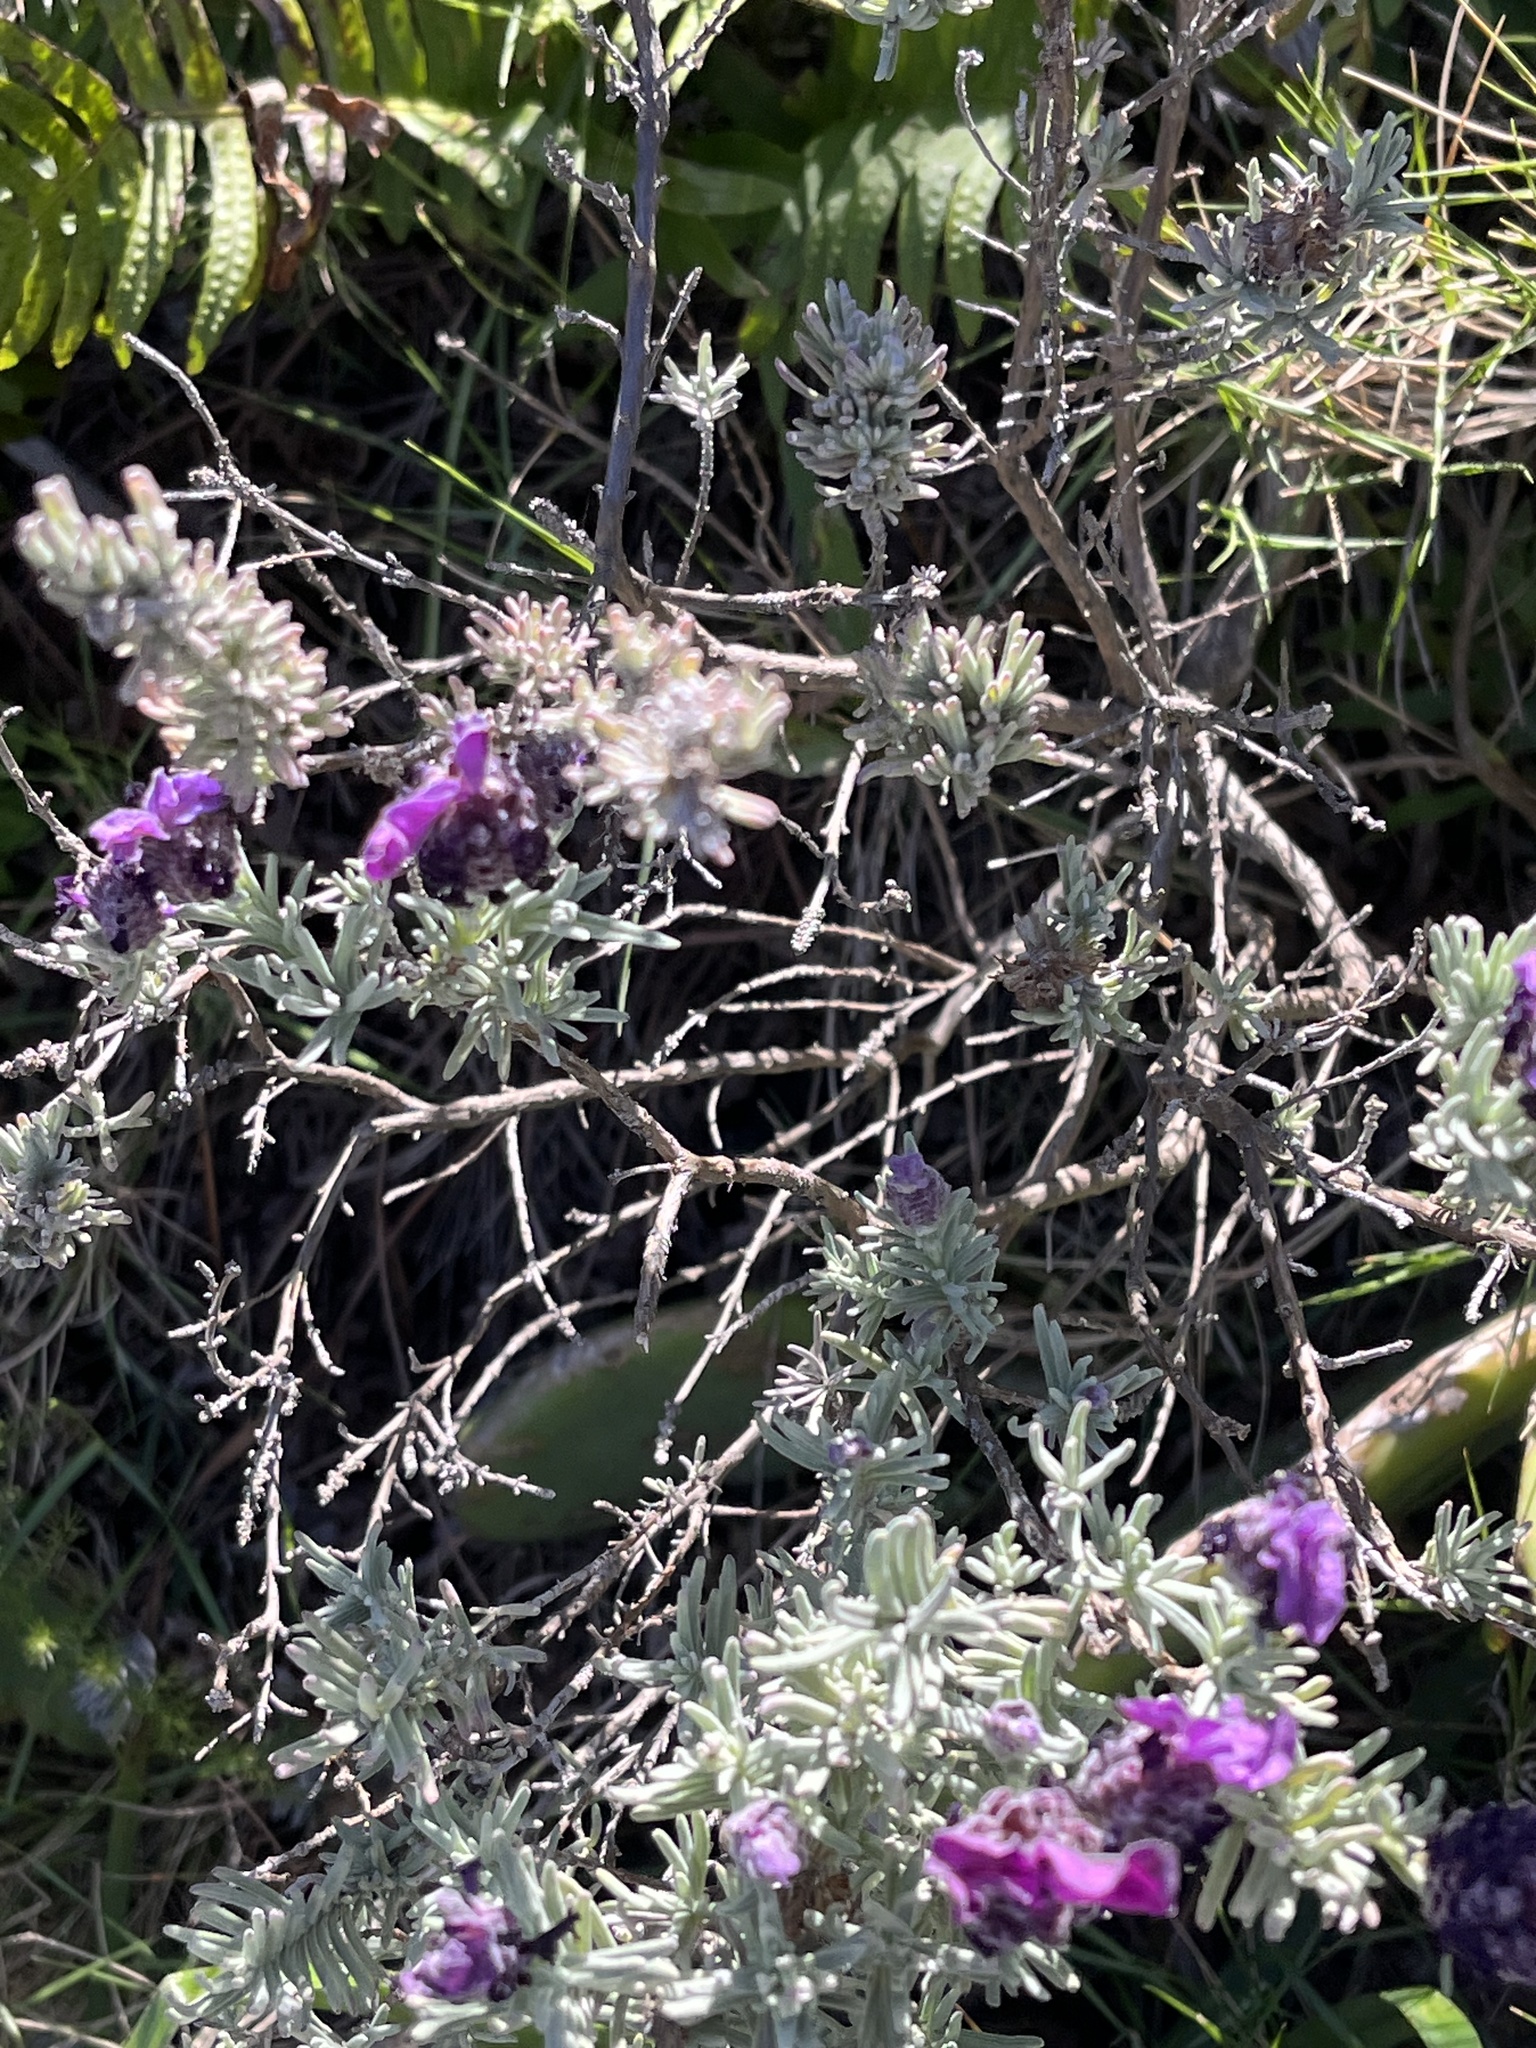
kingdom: Plantae
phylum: Tracheophyta
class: Magnoliopsida
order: Lamiales
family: Lamiaceae
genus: Lavandula
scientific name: Lavandula stoechas
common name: French lavender
